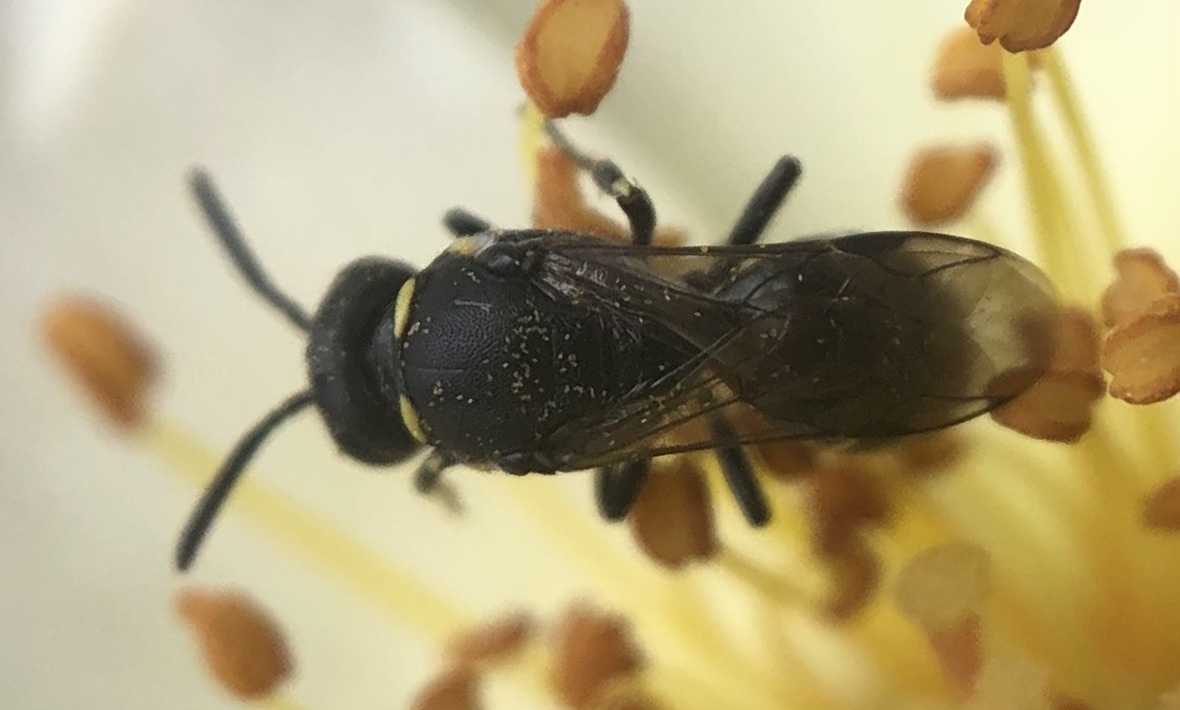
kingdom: Animalia
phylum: Arthropoda
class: Insecta
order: Hymenoptera
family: Colletidae
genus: Hylaeus
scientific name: Hylaeus modestus
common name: Yellow-faced bee
